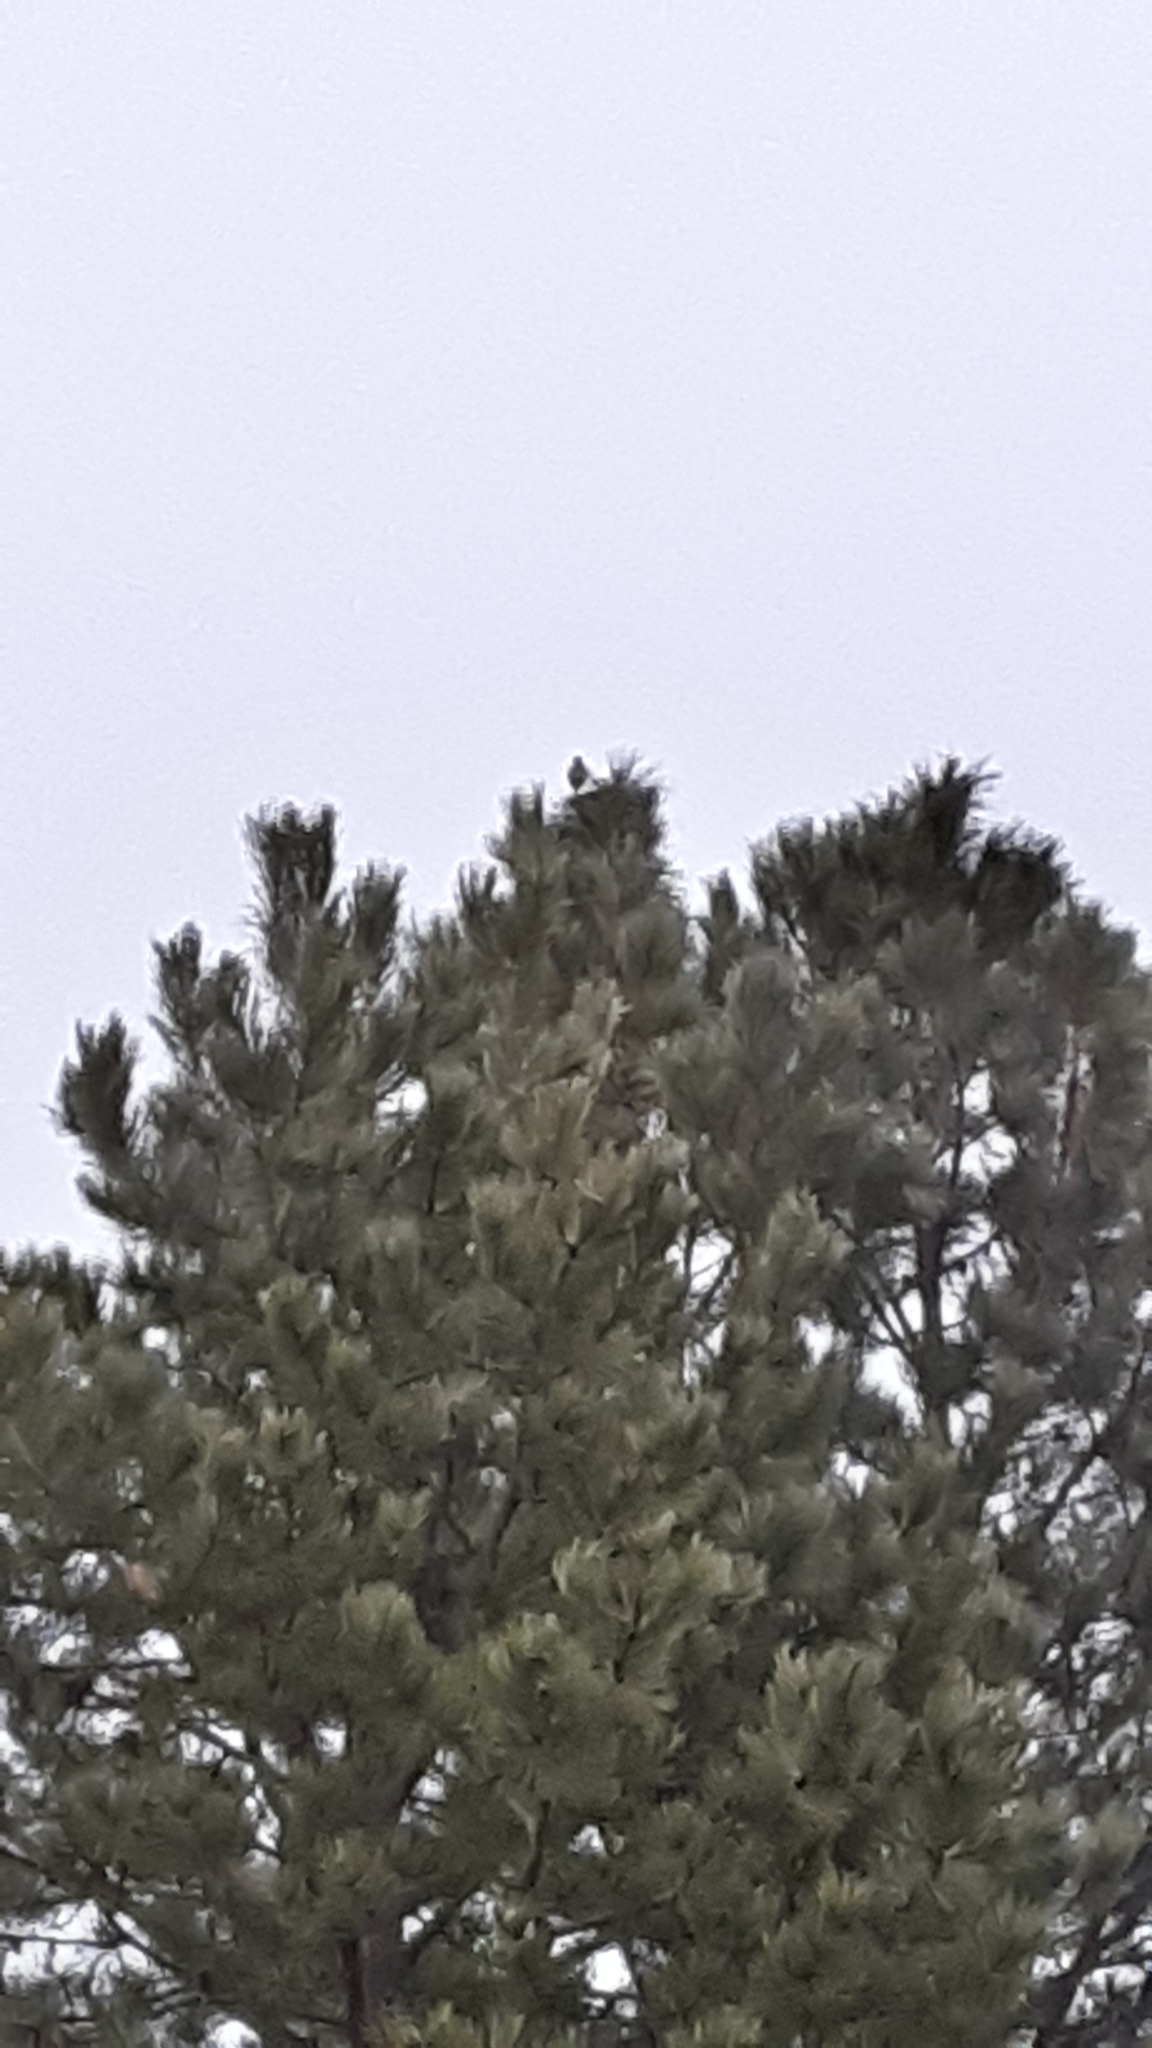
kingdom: Animalia
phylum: Chordata
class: Aves
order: Passeriformes
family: Icteridae
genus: Sturnella
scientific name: Sturnella neglecta
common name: Western meadowlark
